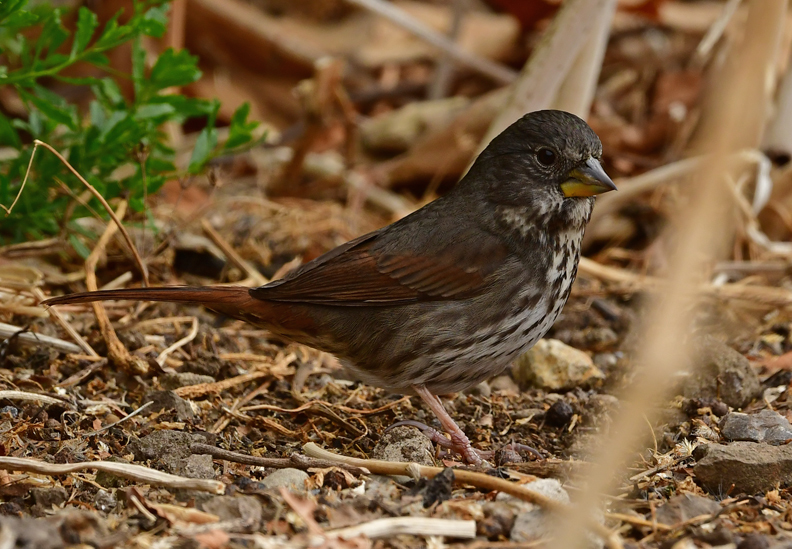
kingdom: Animalia
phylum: Chordata
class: Aves
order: Passeriformes
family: Passerellidae
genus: Passerella
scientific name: Passerella iliaca
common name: Fox sparrow
